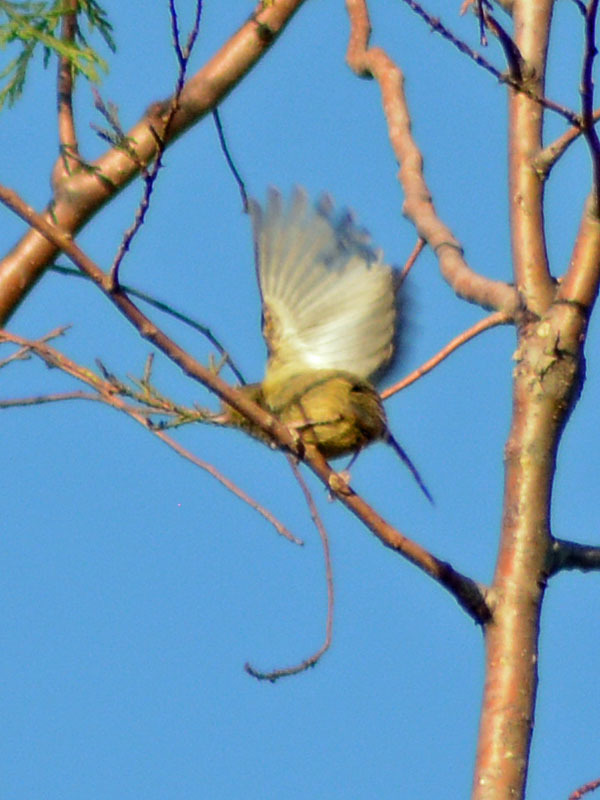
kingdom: Animalia
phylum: Chordata
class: Aves
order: Passeriformes
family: Thraupidae
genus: Diglossa
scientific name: Diglossa baritula
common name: Cinnamon-bellied flowerpiercer
